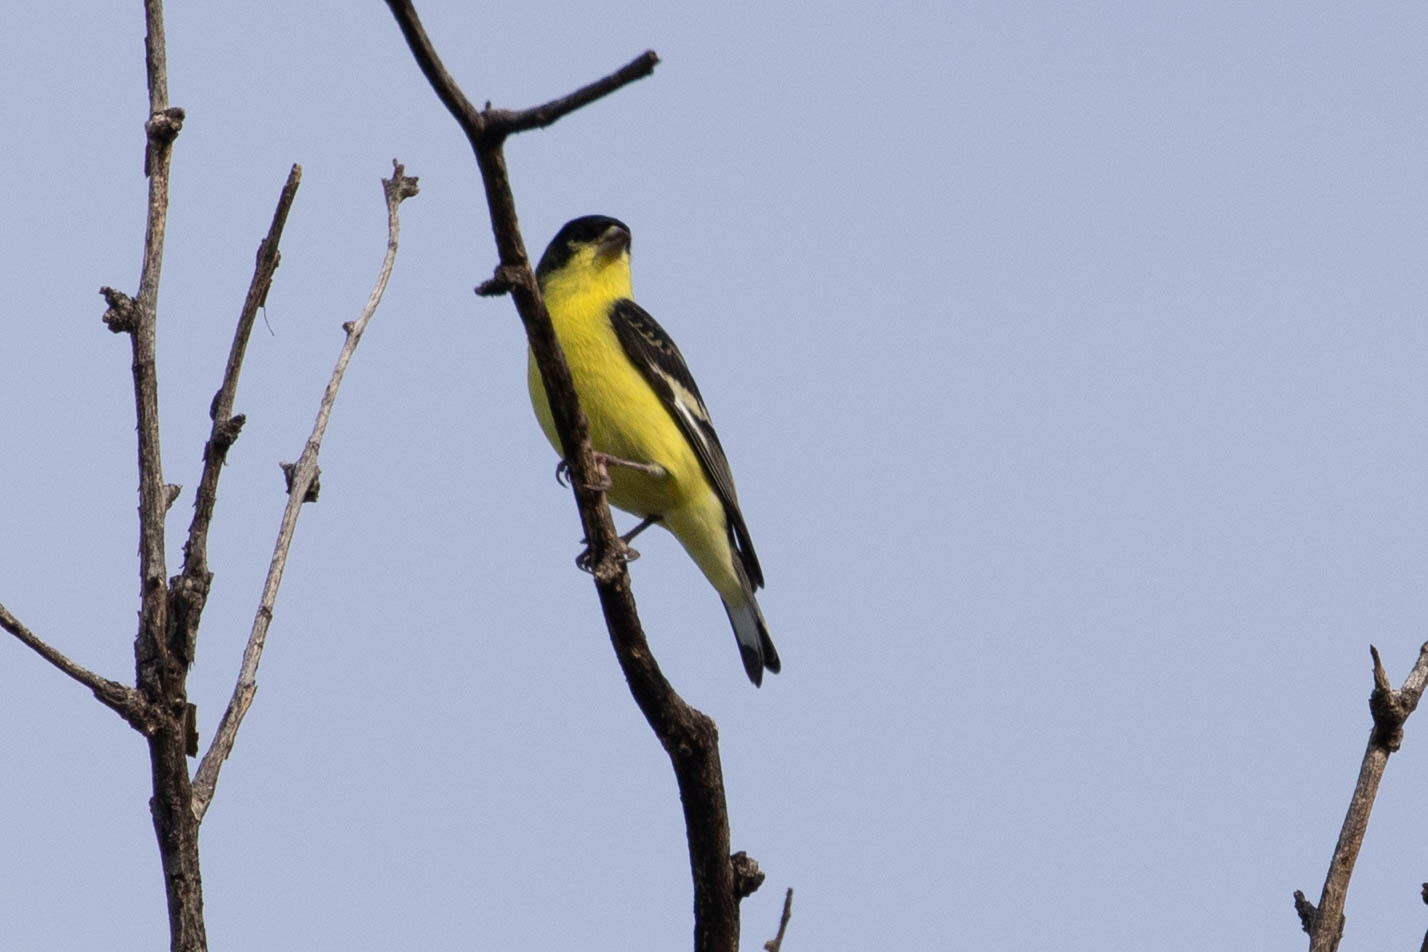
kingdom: Animalia
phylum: Chordata
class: Aves
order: Passeriformes
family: Fringillidae
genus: Spinus
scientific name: Spinus psaltria
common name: Lesser goldfinch
